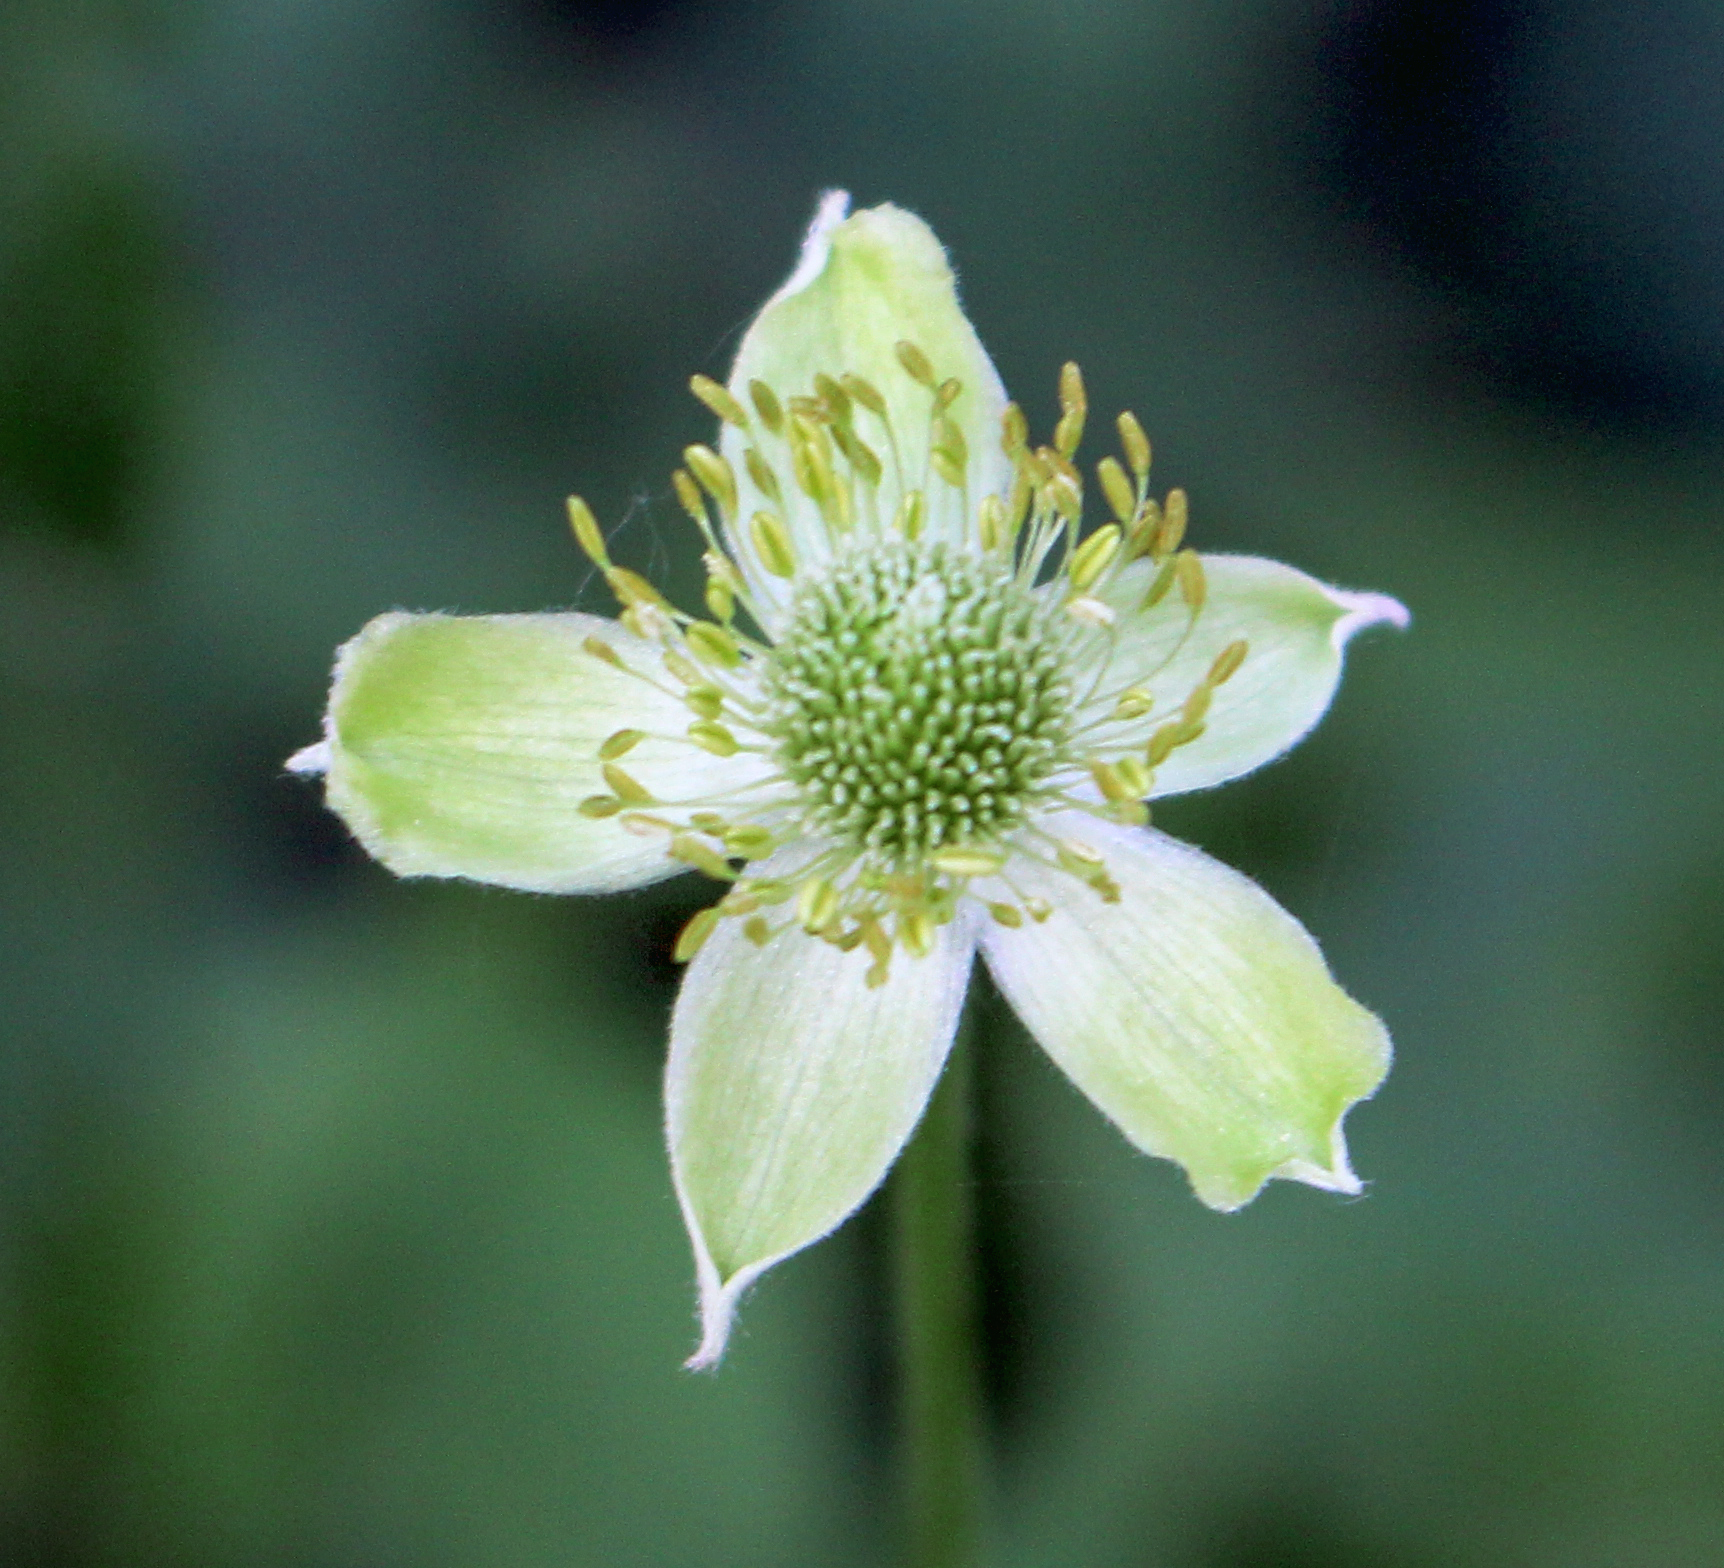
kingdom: Plantae
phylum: Tracheophyta
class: Magnoliopsida
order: Ranunculales
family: Ranunculaceae
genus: Anemone
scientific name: Anemone virginiana
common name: Tall anemone
